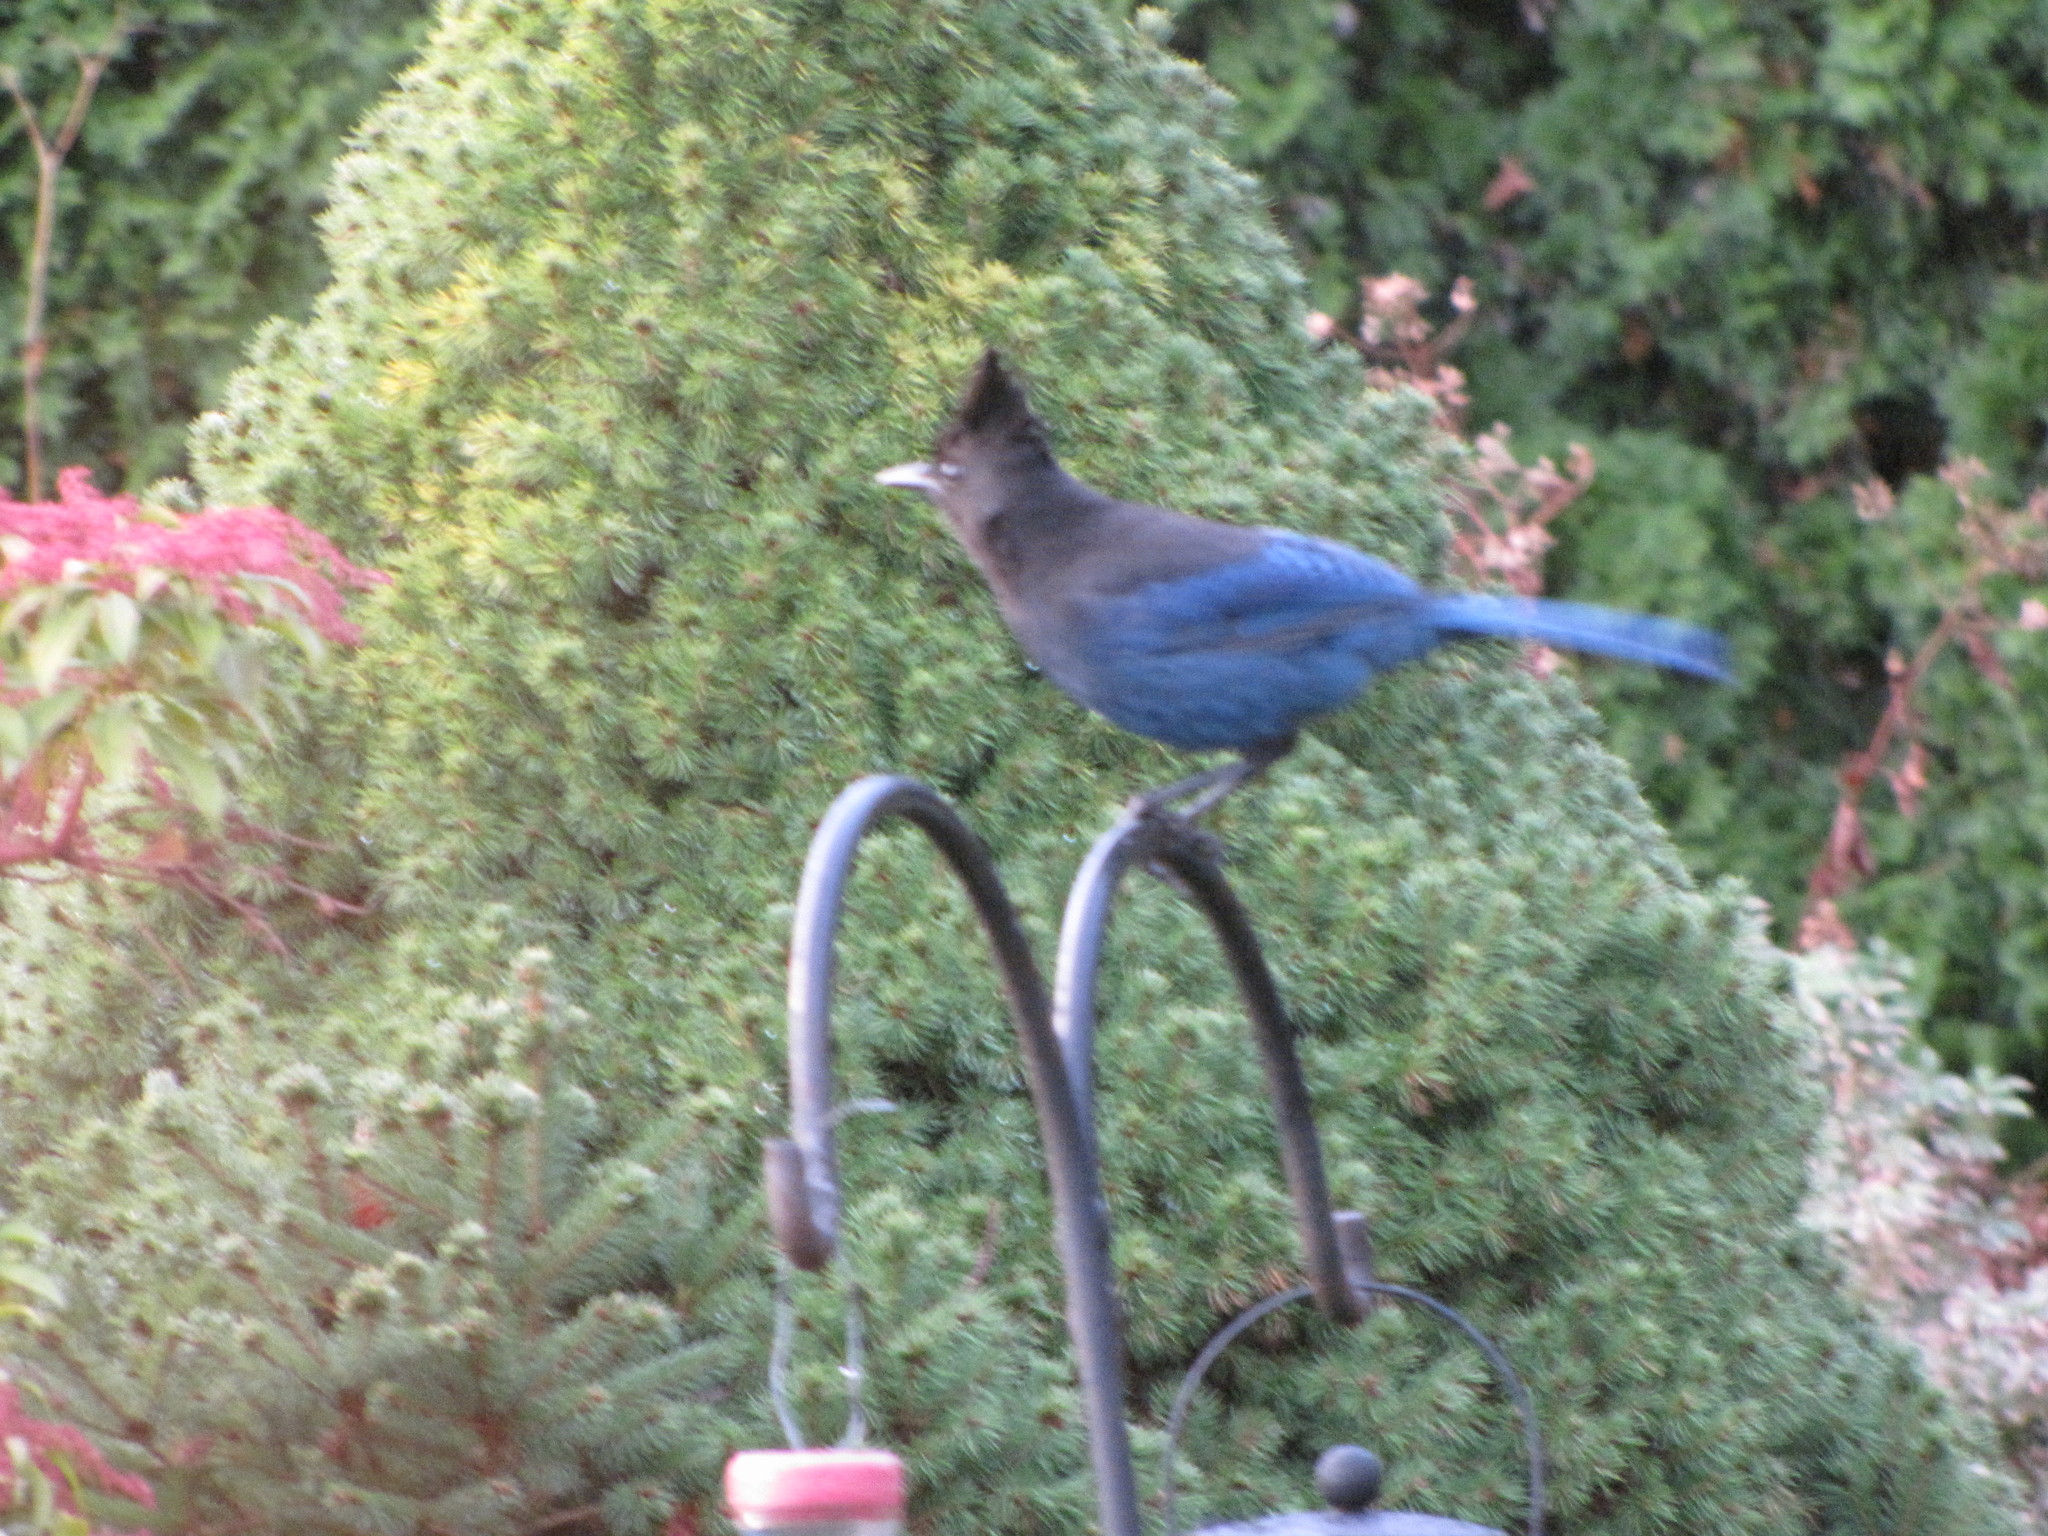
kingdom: Animalia
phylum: Chordata
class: Aves
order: Passeriformes
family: Corvidae
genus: Cyanocitta
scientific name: Cyanocitta stelleri
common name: Steller's jay
